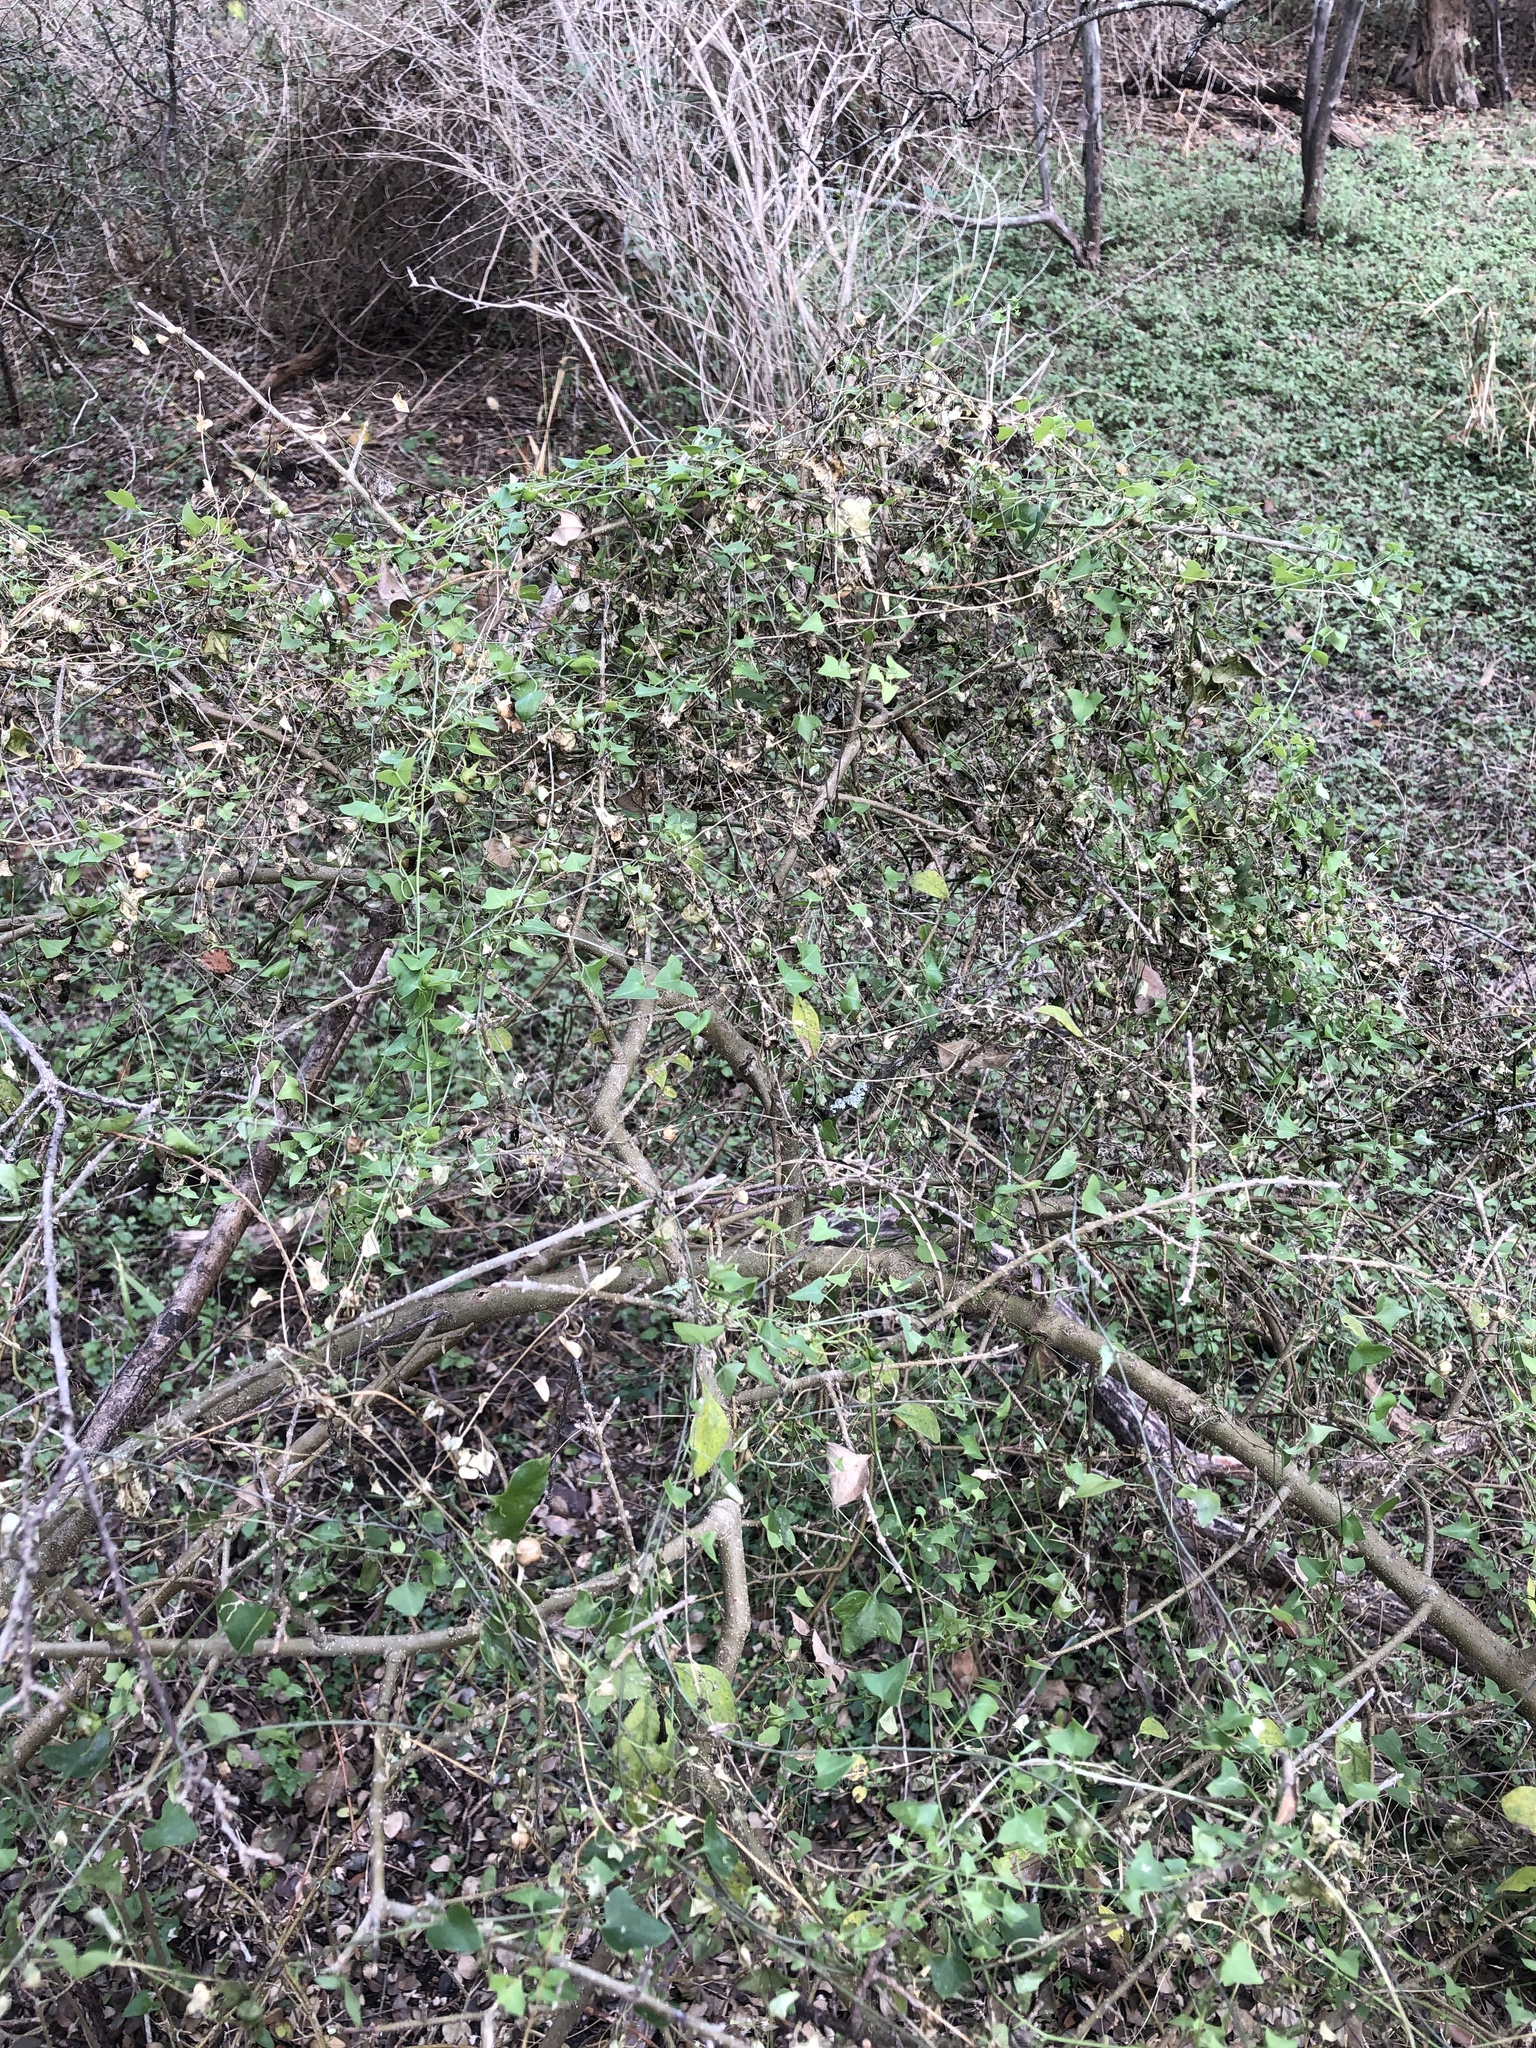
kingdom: Plantae
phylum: Tracheophyta
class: Magnoliopsida
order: Lamiales
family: Plantaginaceae
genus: Maurandella
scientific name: Maurandella antirrhiniflora
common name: Violet twining-snapdragon
